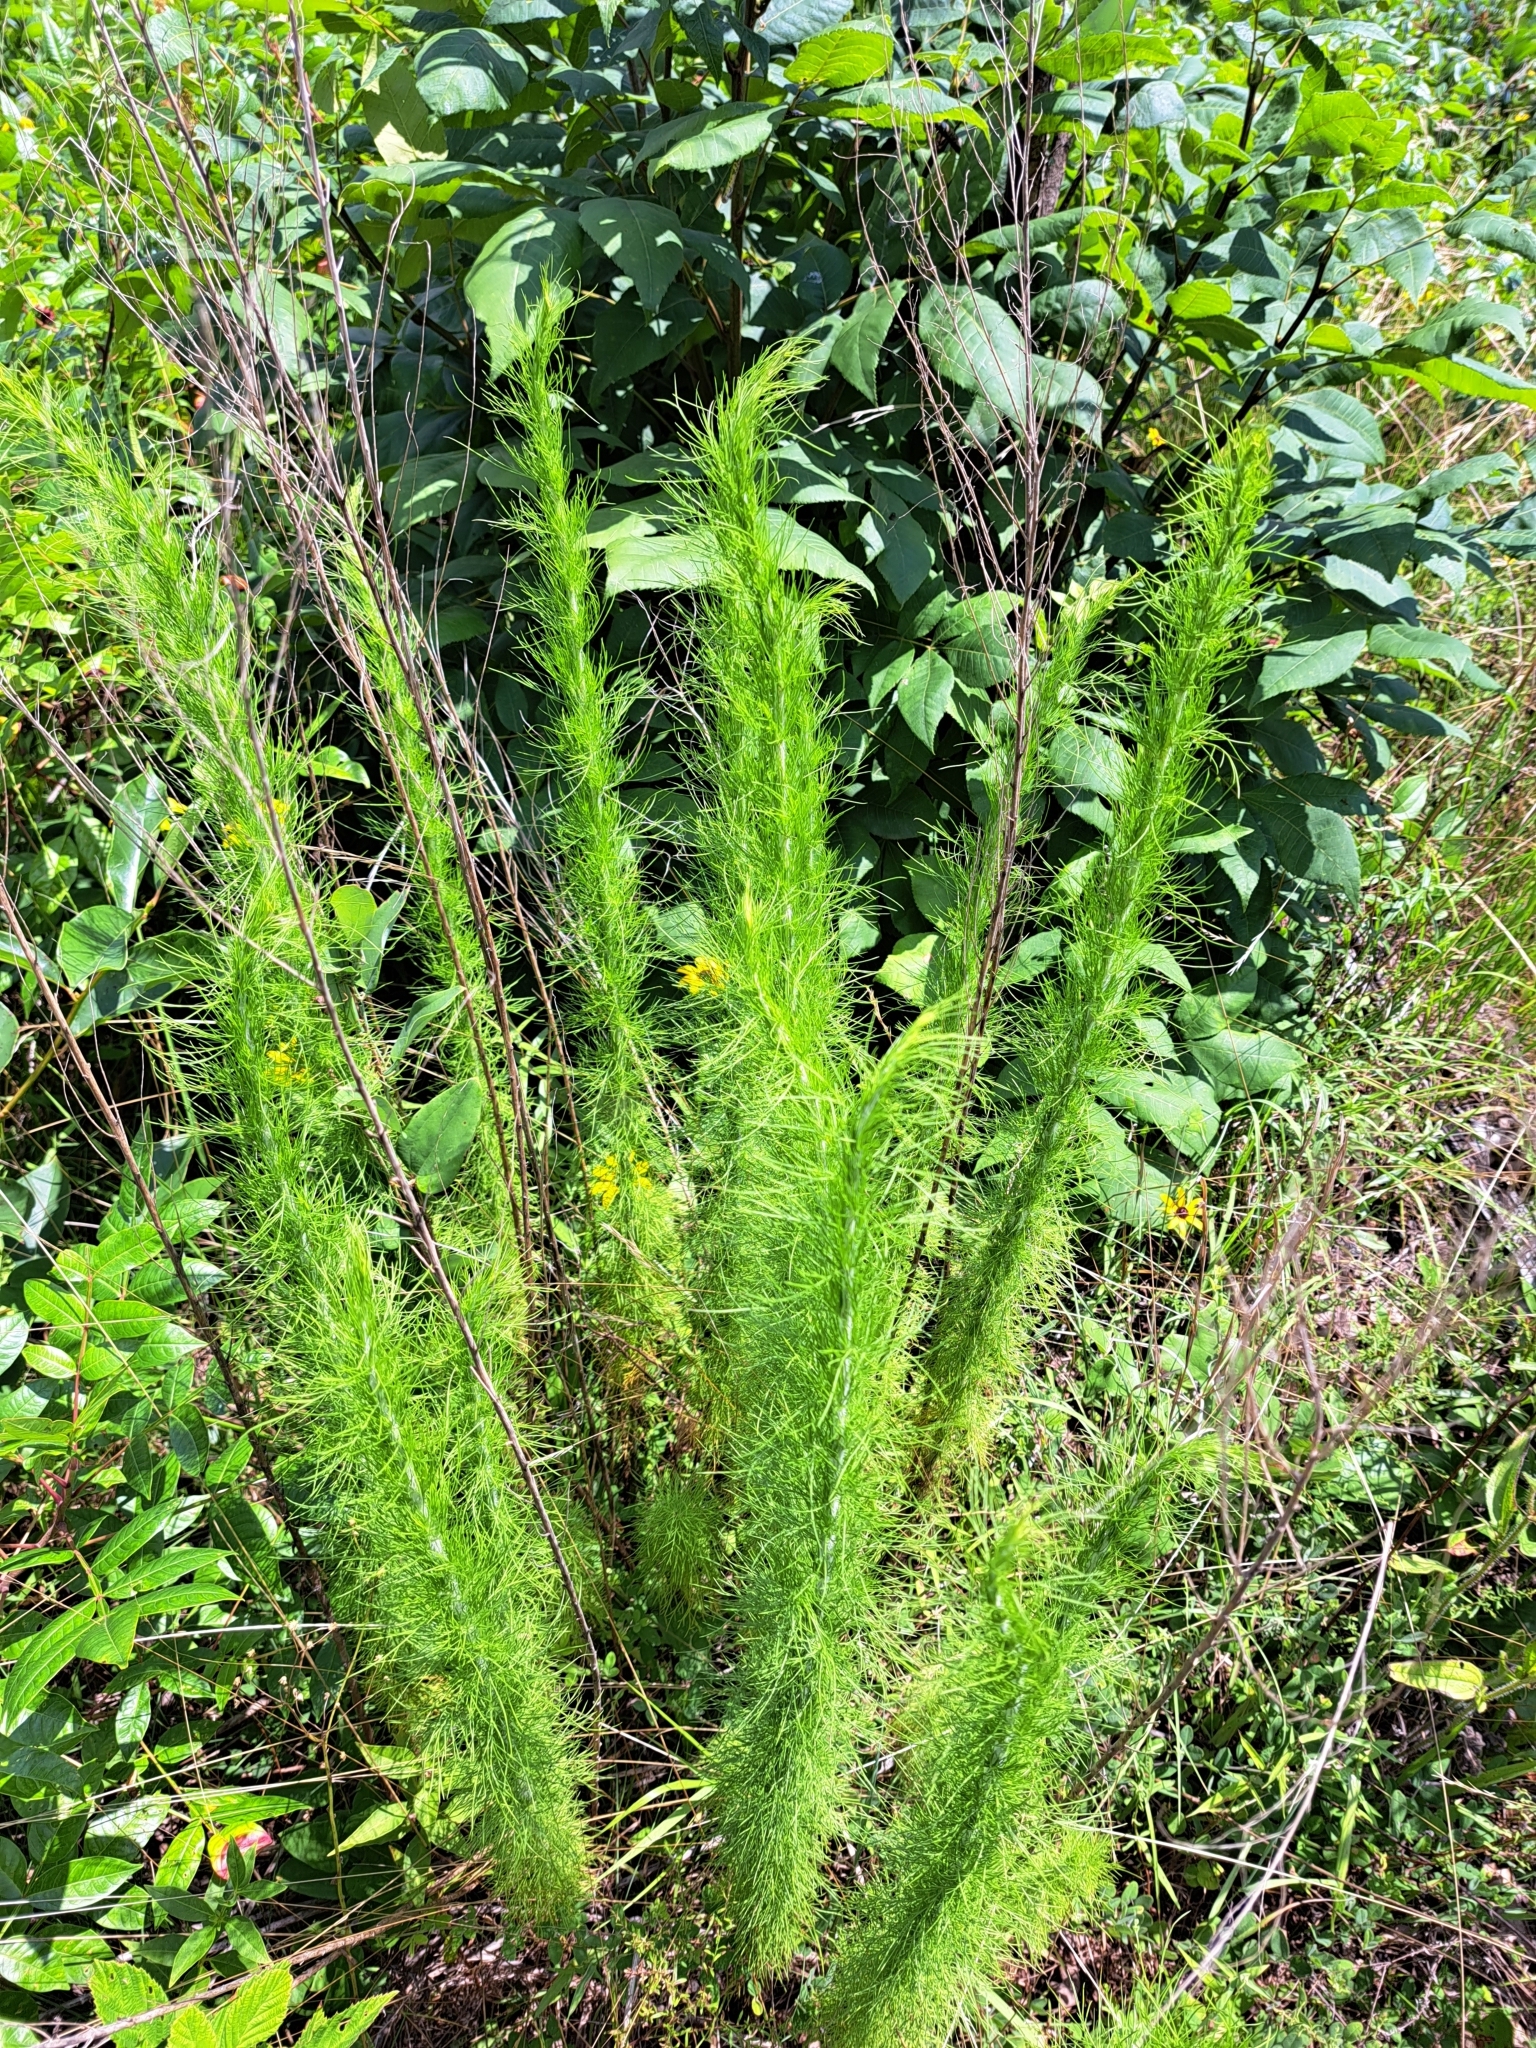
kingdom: Plantae
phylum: Tracheophyta
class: Magnoliopsida
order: Asterales
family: Asteraceae
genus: Eupatorium
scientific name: Eupatorium capillifolium
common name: Dog-fennel
